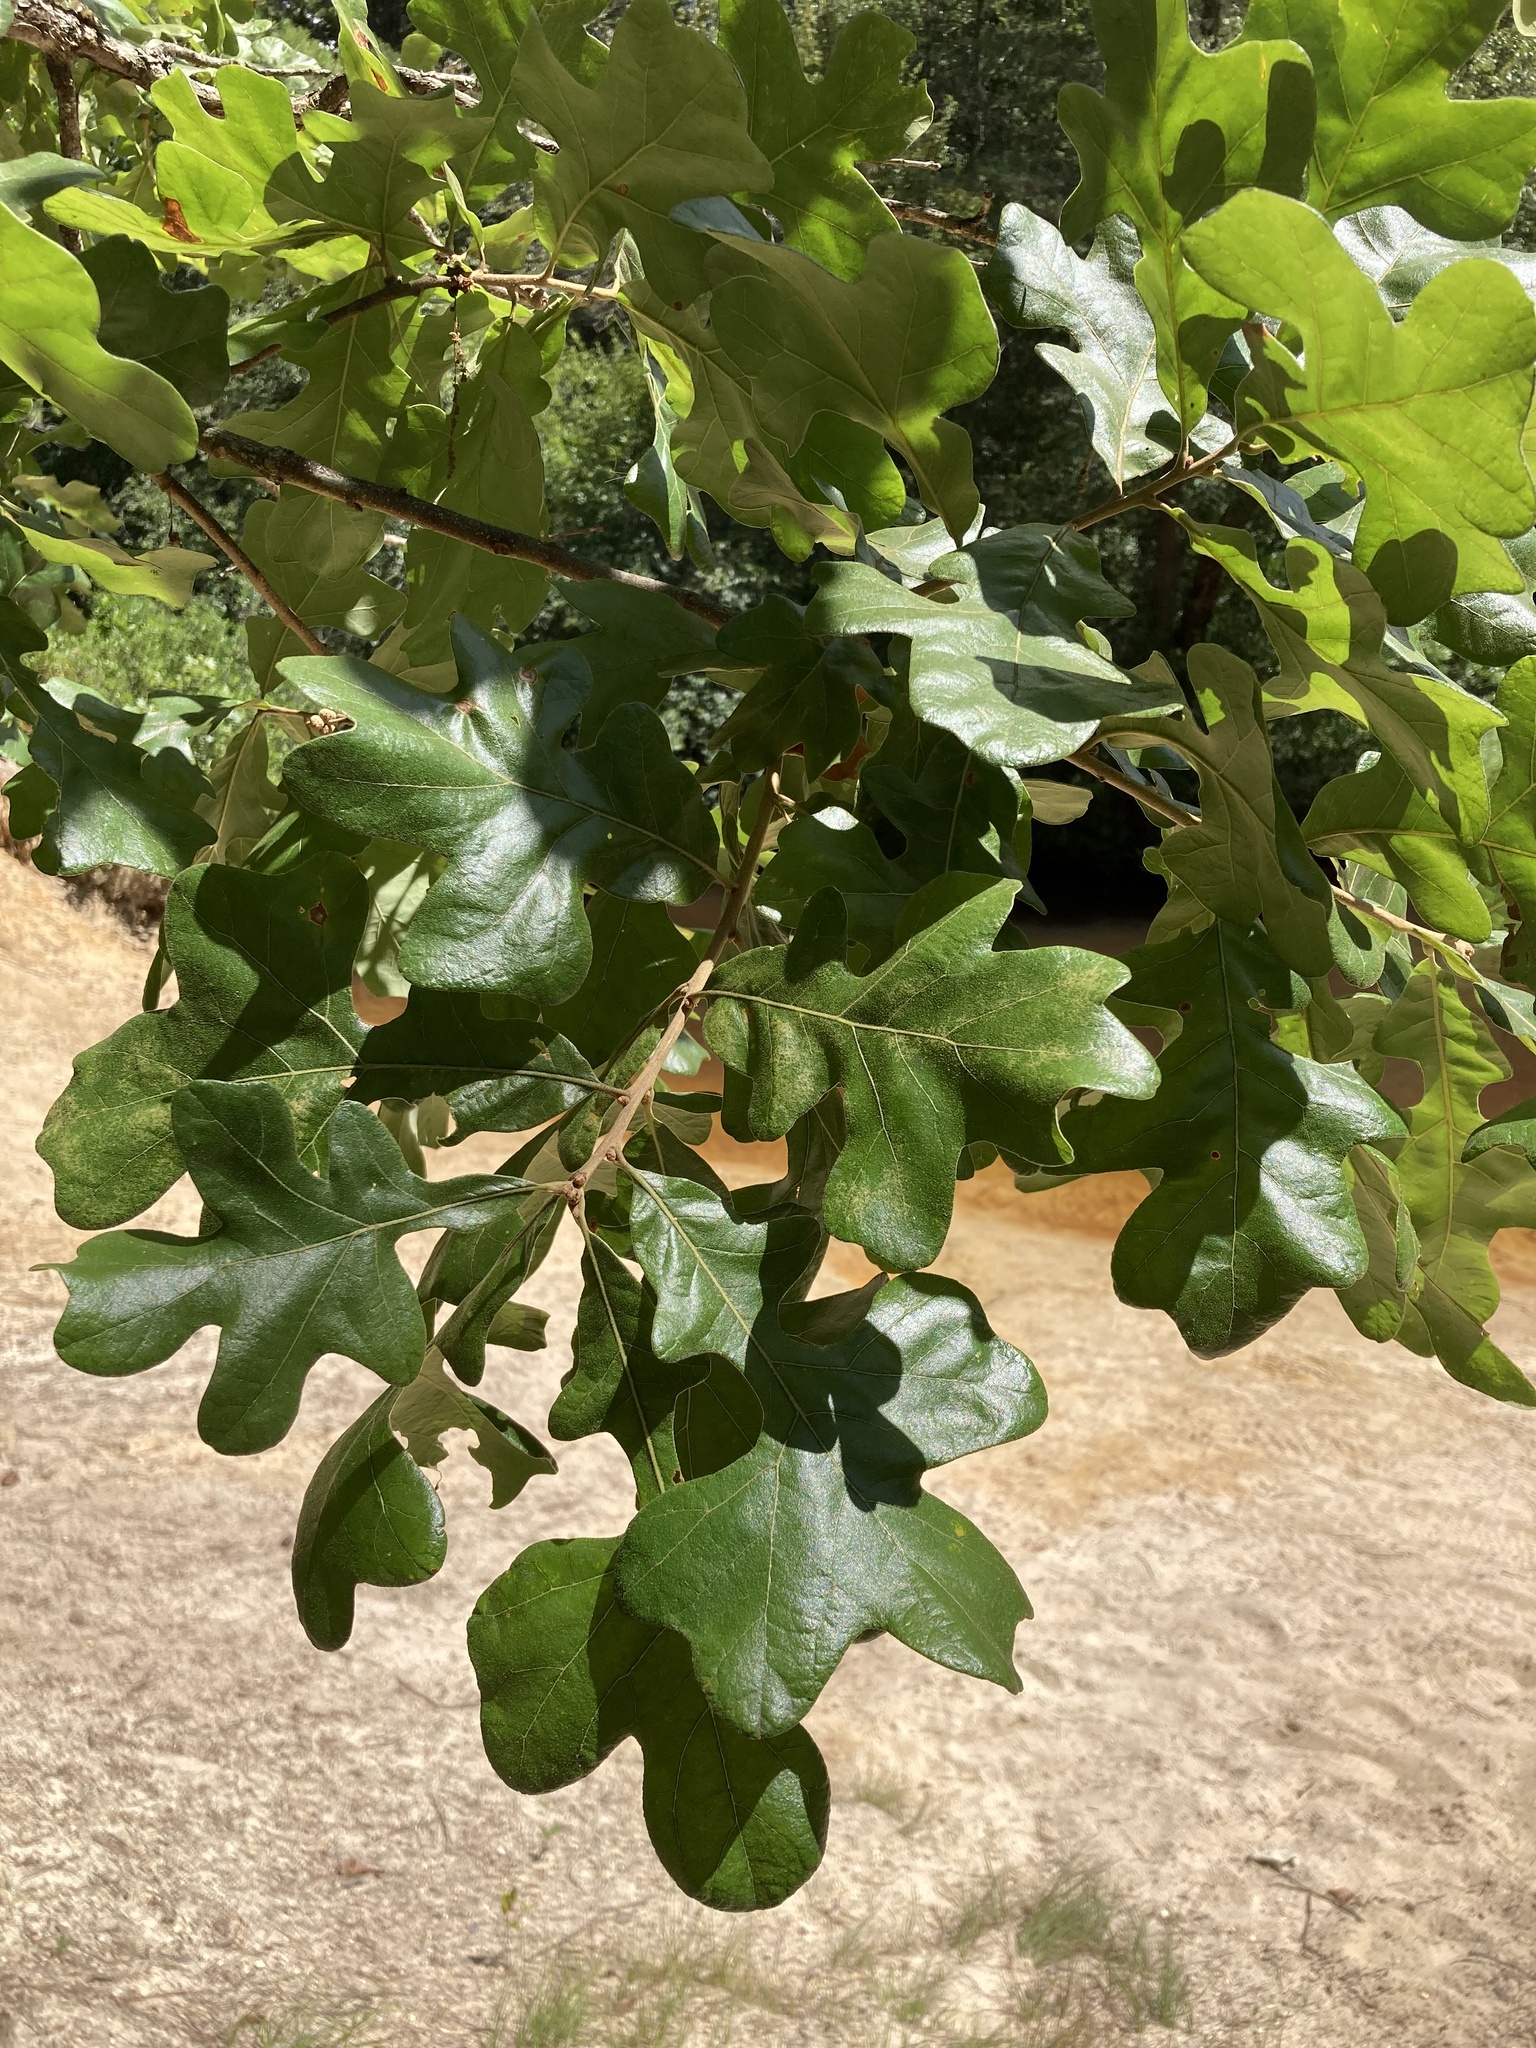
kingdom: Plantae
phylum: Tracheophyta
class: Magnoliopsida
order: Fagales
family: Fagaceae
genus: Quercus
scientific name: Quercus stellata
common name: Post oak
